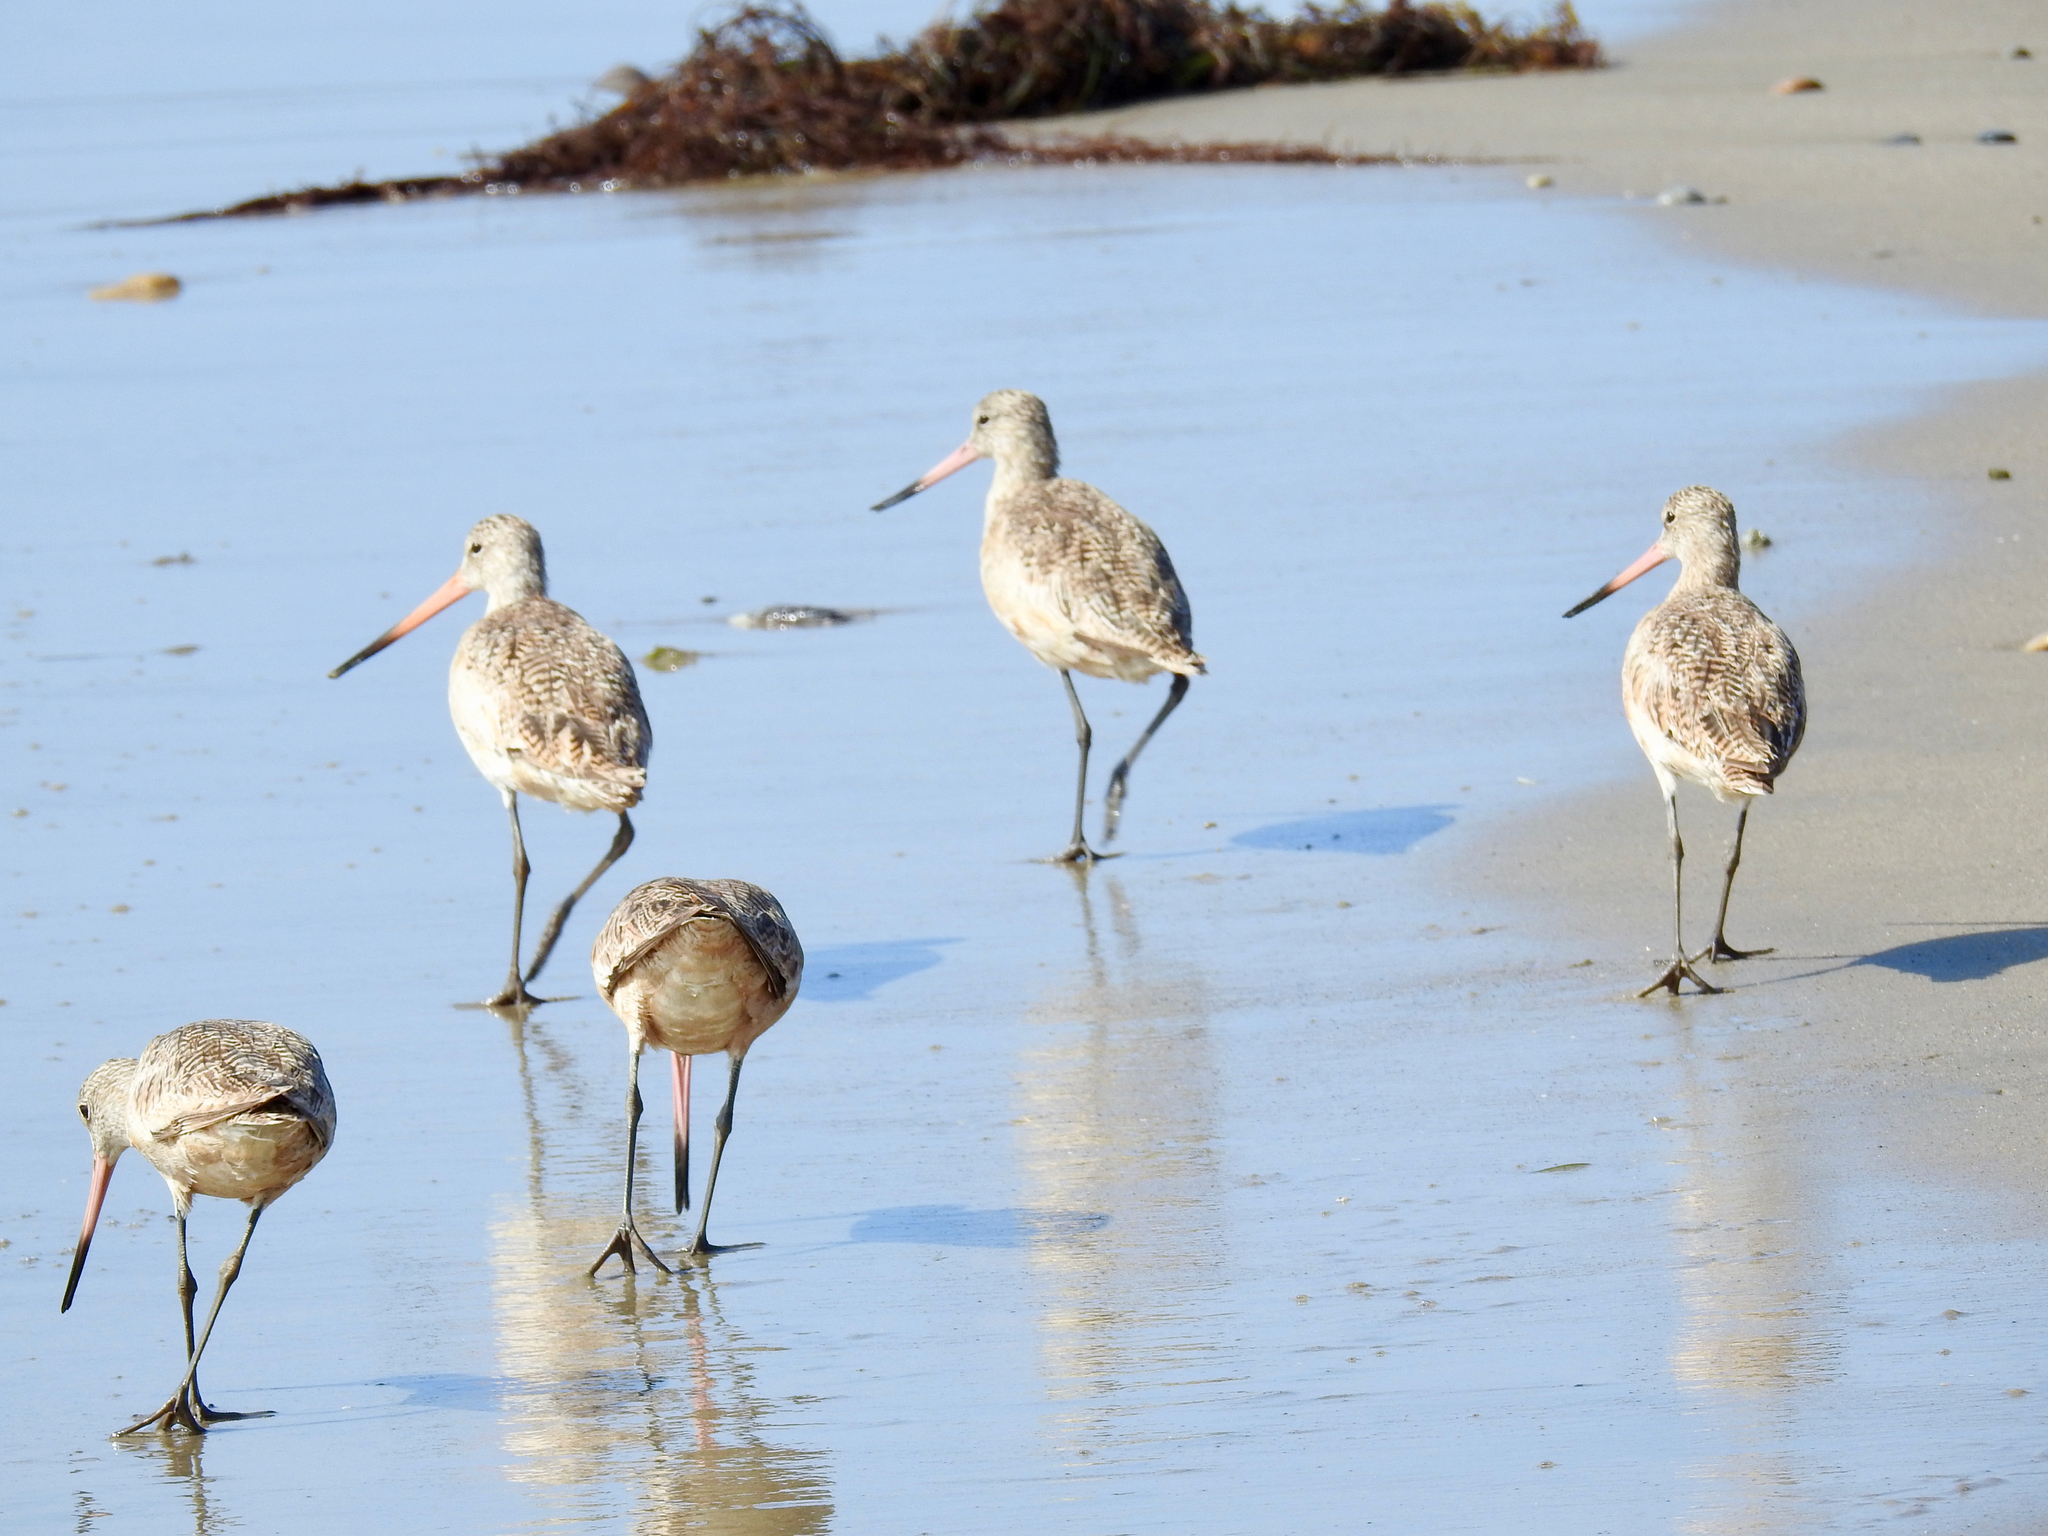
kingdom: Animalia
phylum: Chordata
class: Aves
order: Charadriiformes
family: Scolopacidae
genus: Limosa
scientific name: Limosa fedoa
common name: Marbled godwit
